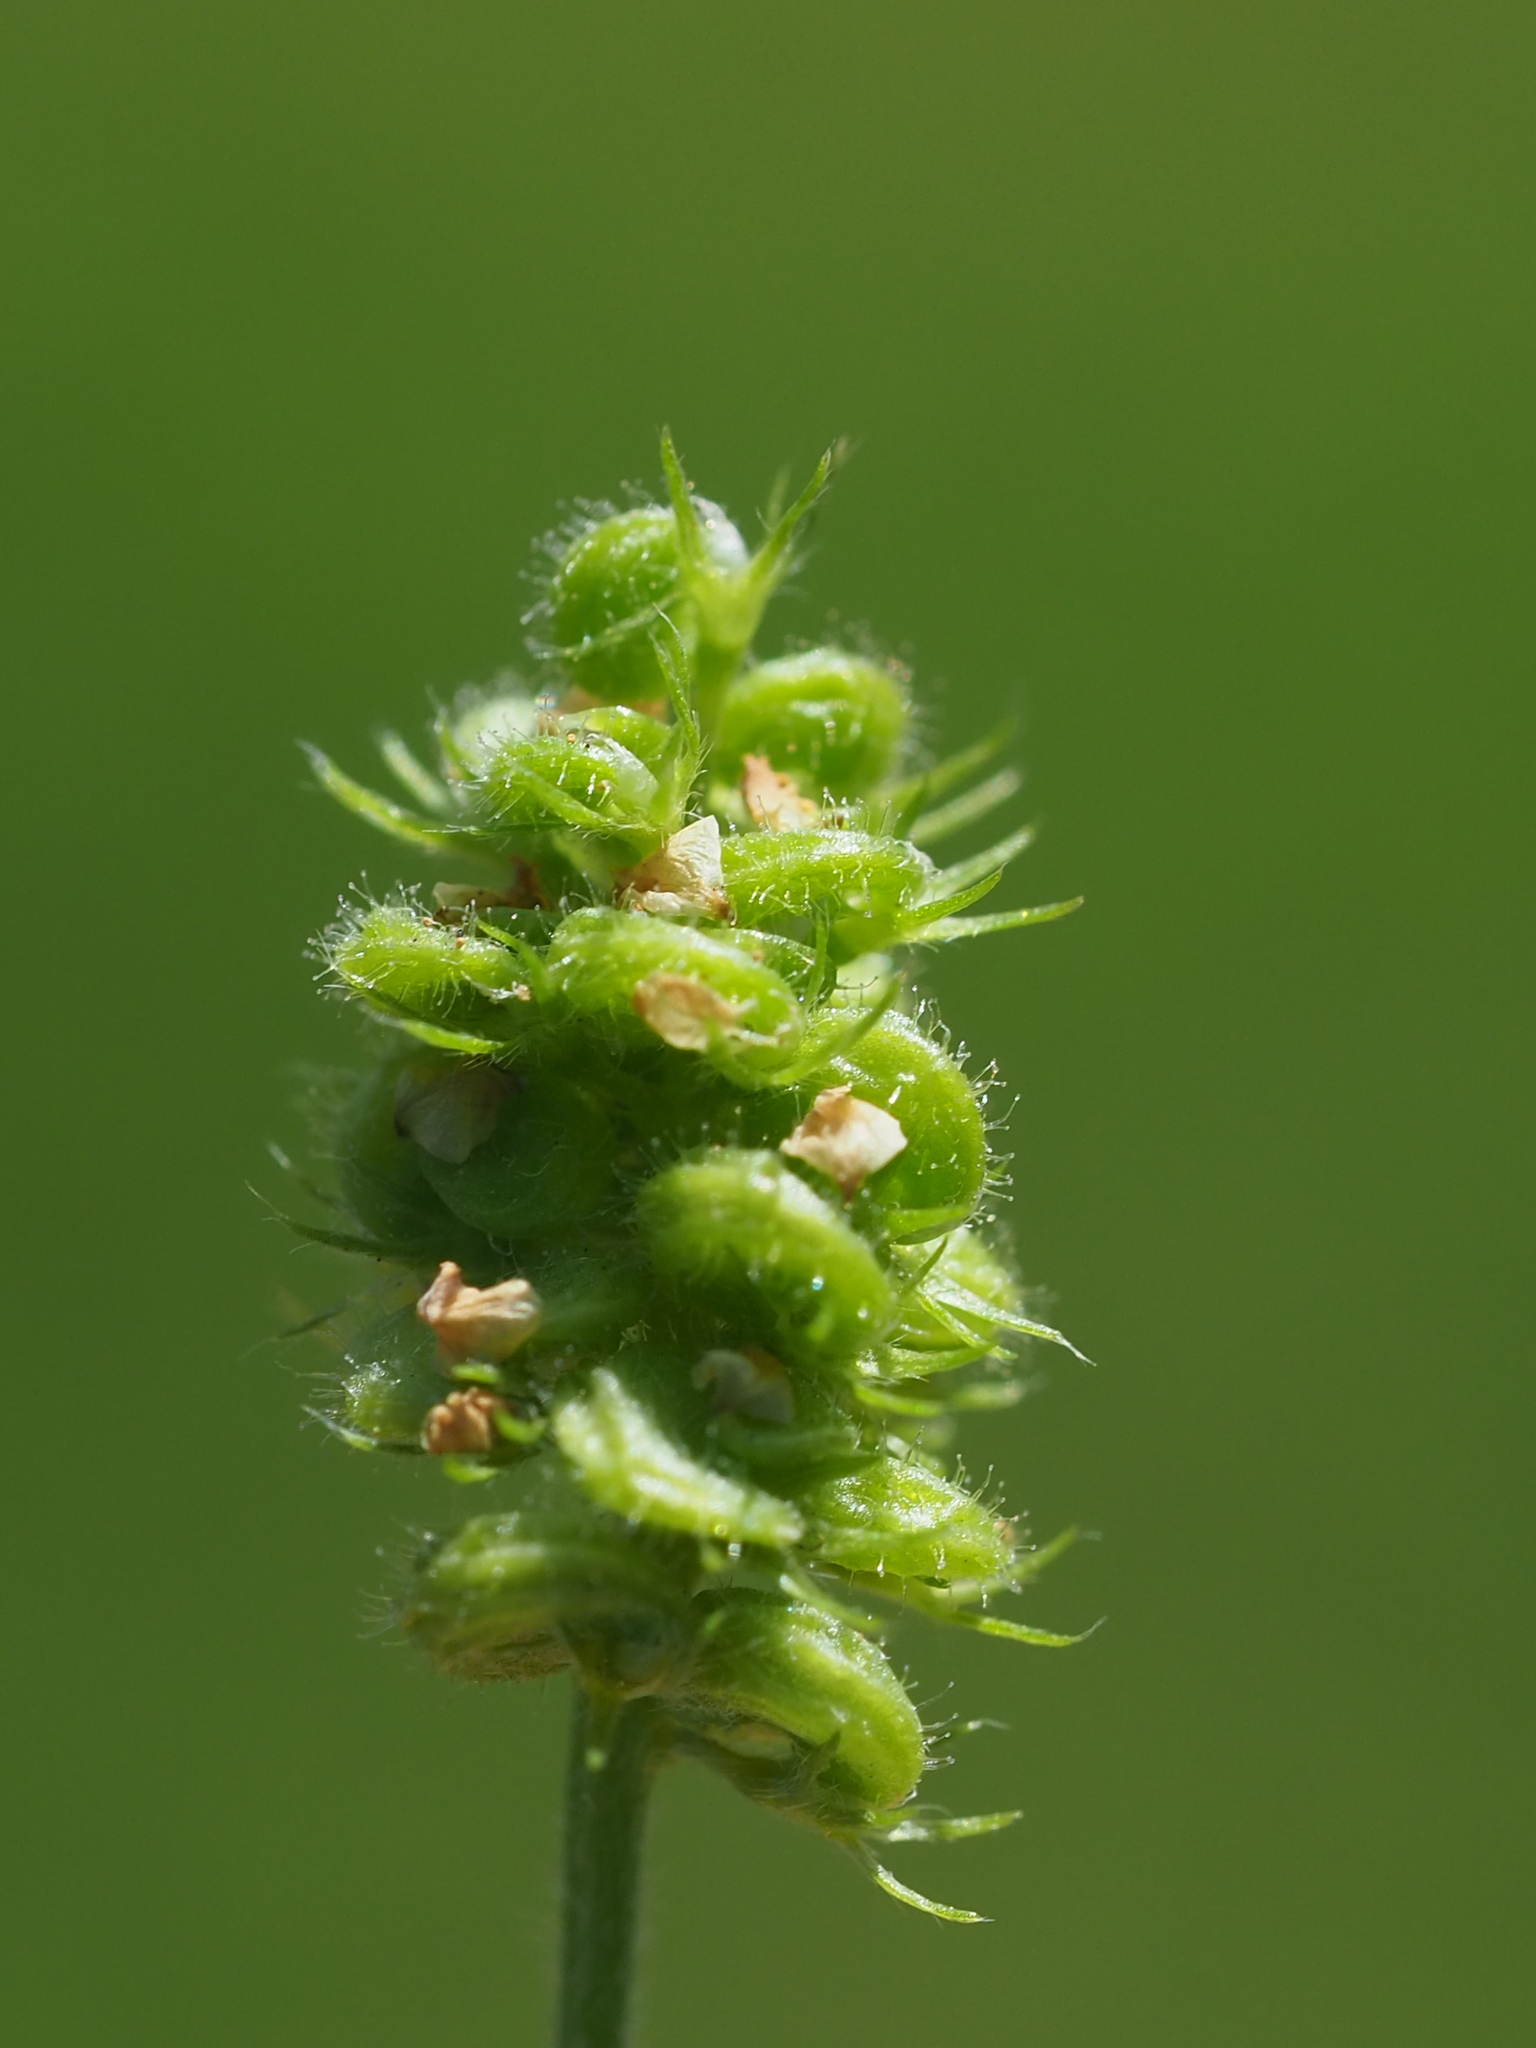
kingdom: Plantae
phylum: Tracheophyta
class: Magnoliopsida
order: Fabales
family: Fabaceae
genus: Medicago
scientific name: Medicago lupulina
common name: Black medick
